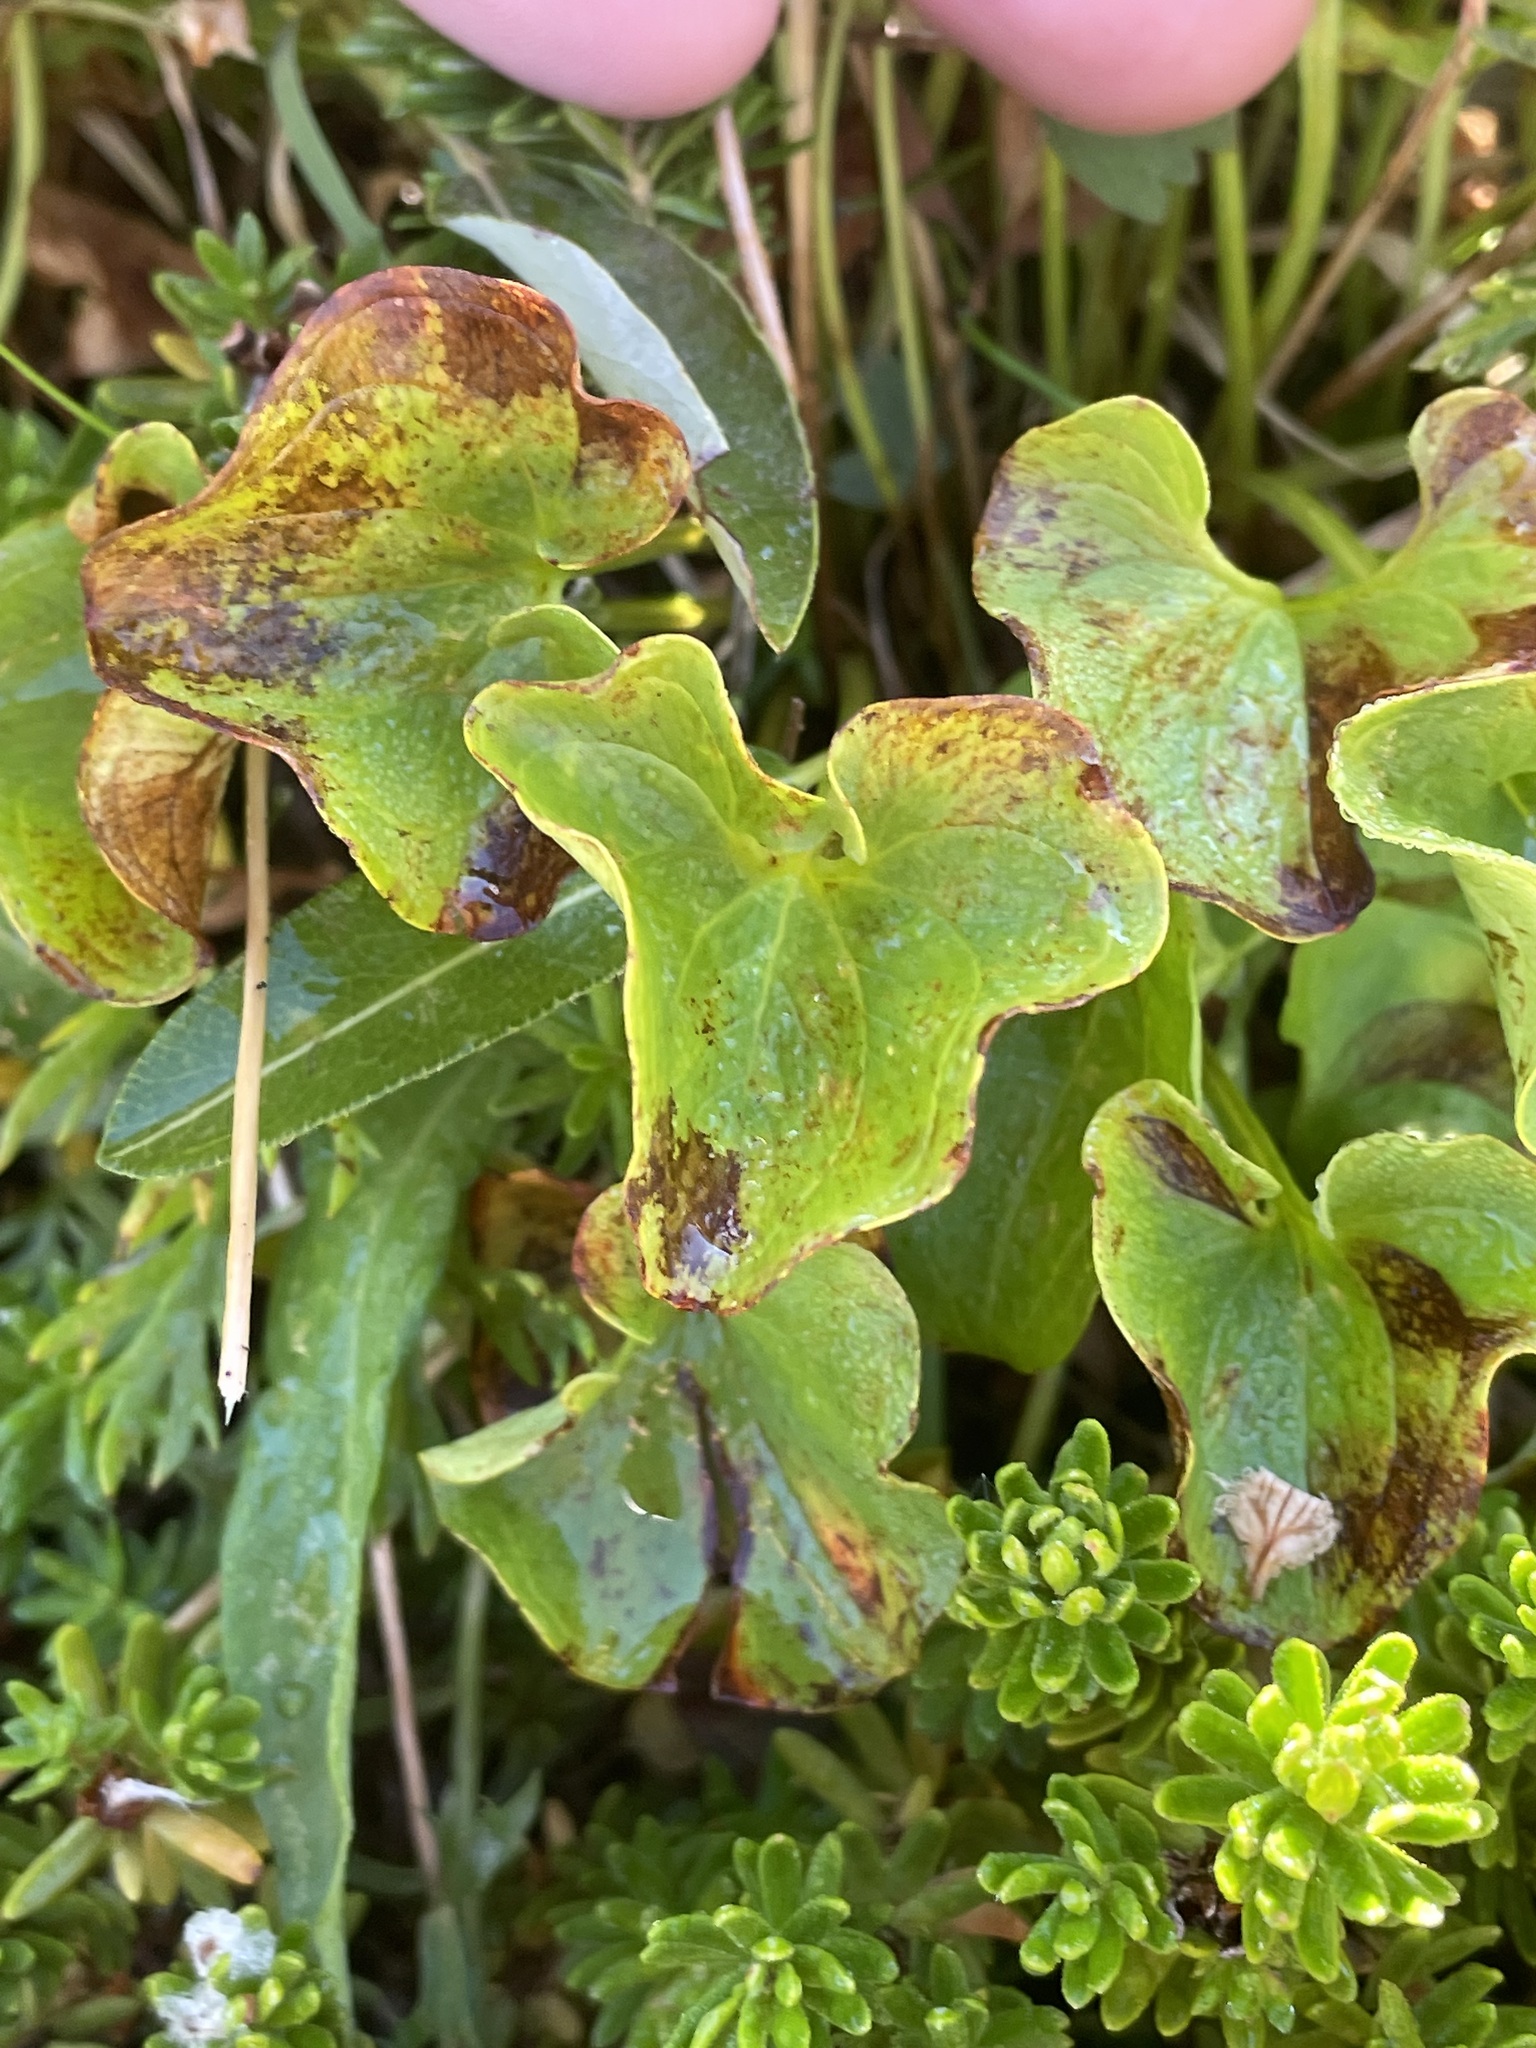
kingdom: Plantae
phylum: Tracheophyta
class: Magnoliopsida
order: Celastrales
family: Parnassiaceae
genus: Parnassia
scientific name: Parnassia fimbriata
